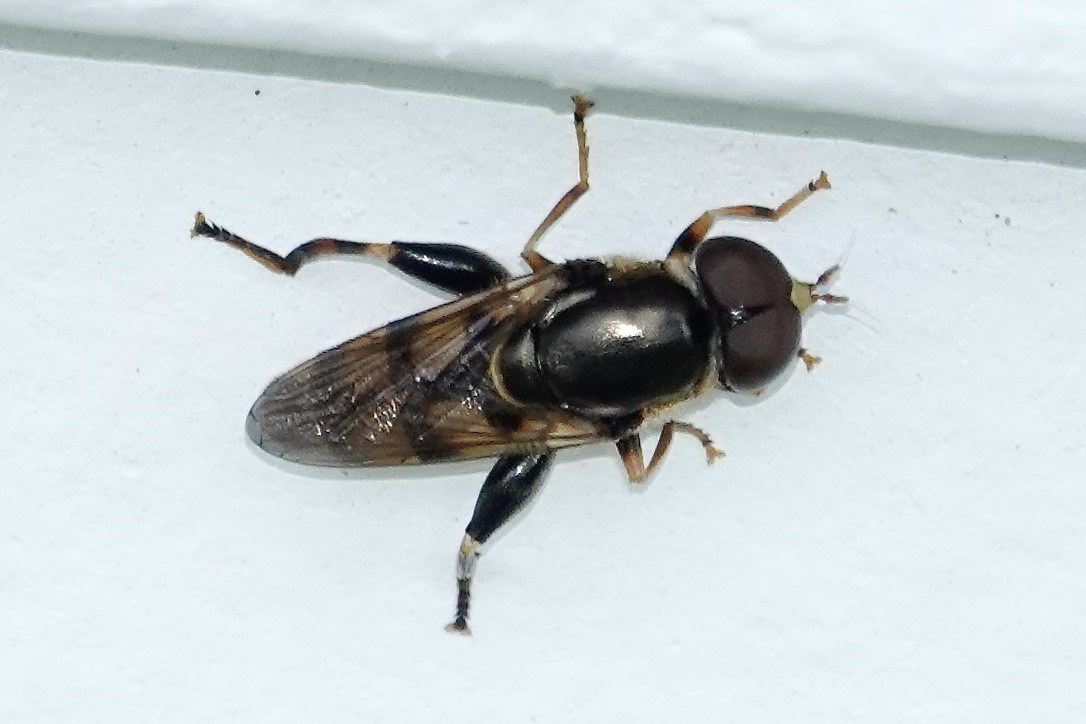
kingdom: Animalia
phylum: Arthropoda
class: Insecta
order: Diptera
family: Syrphidae
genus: Tropidia
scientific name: Tropidia albistylum
